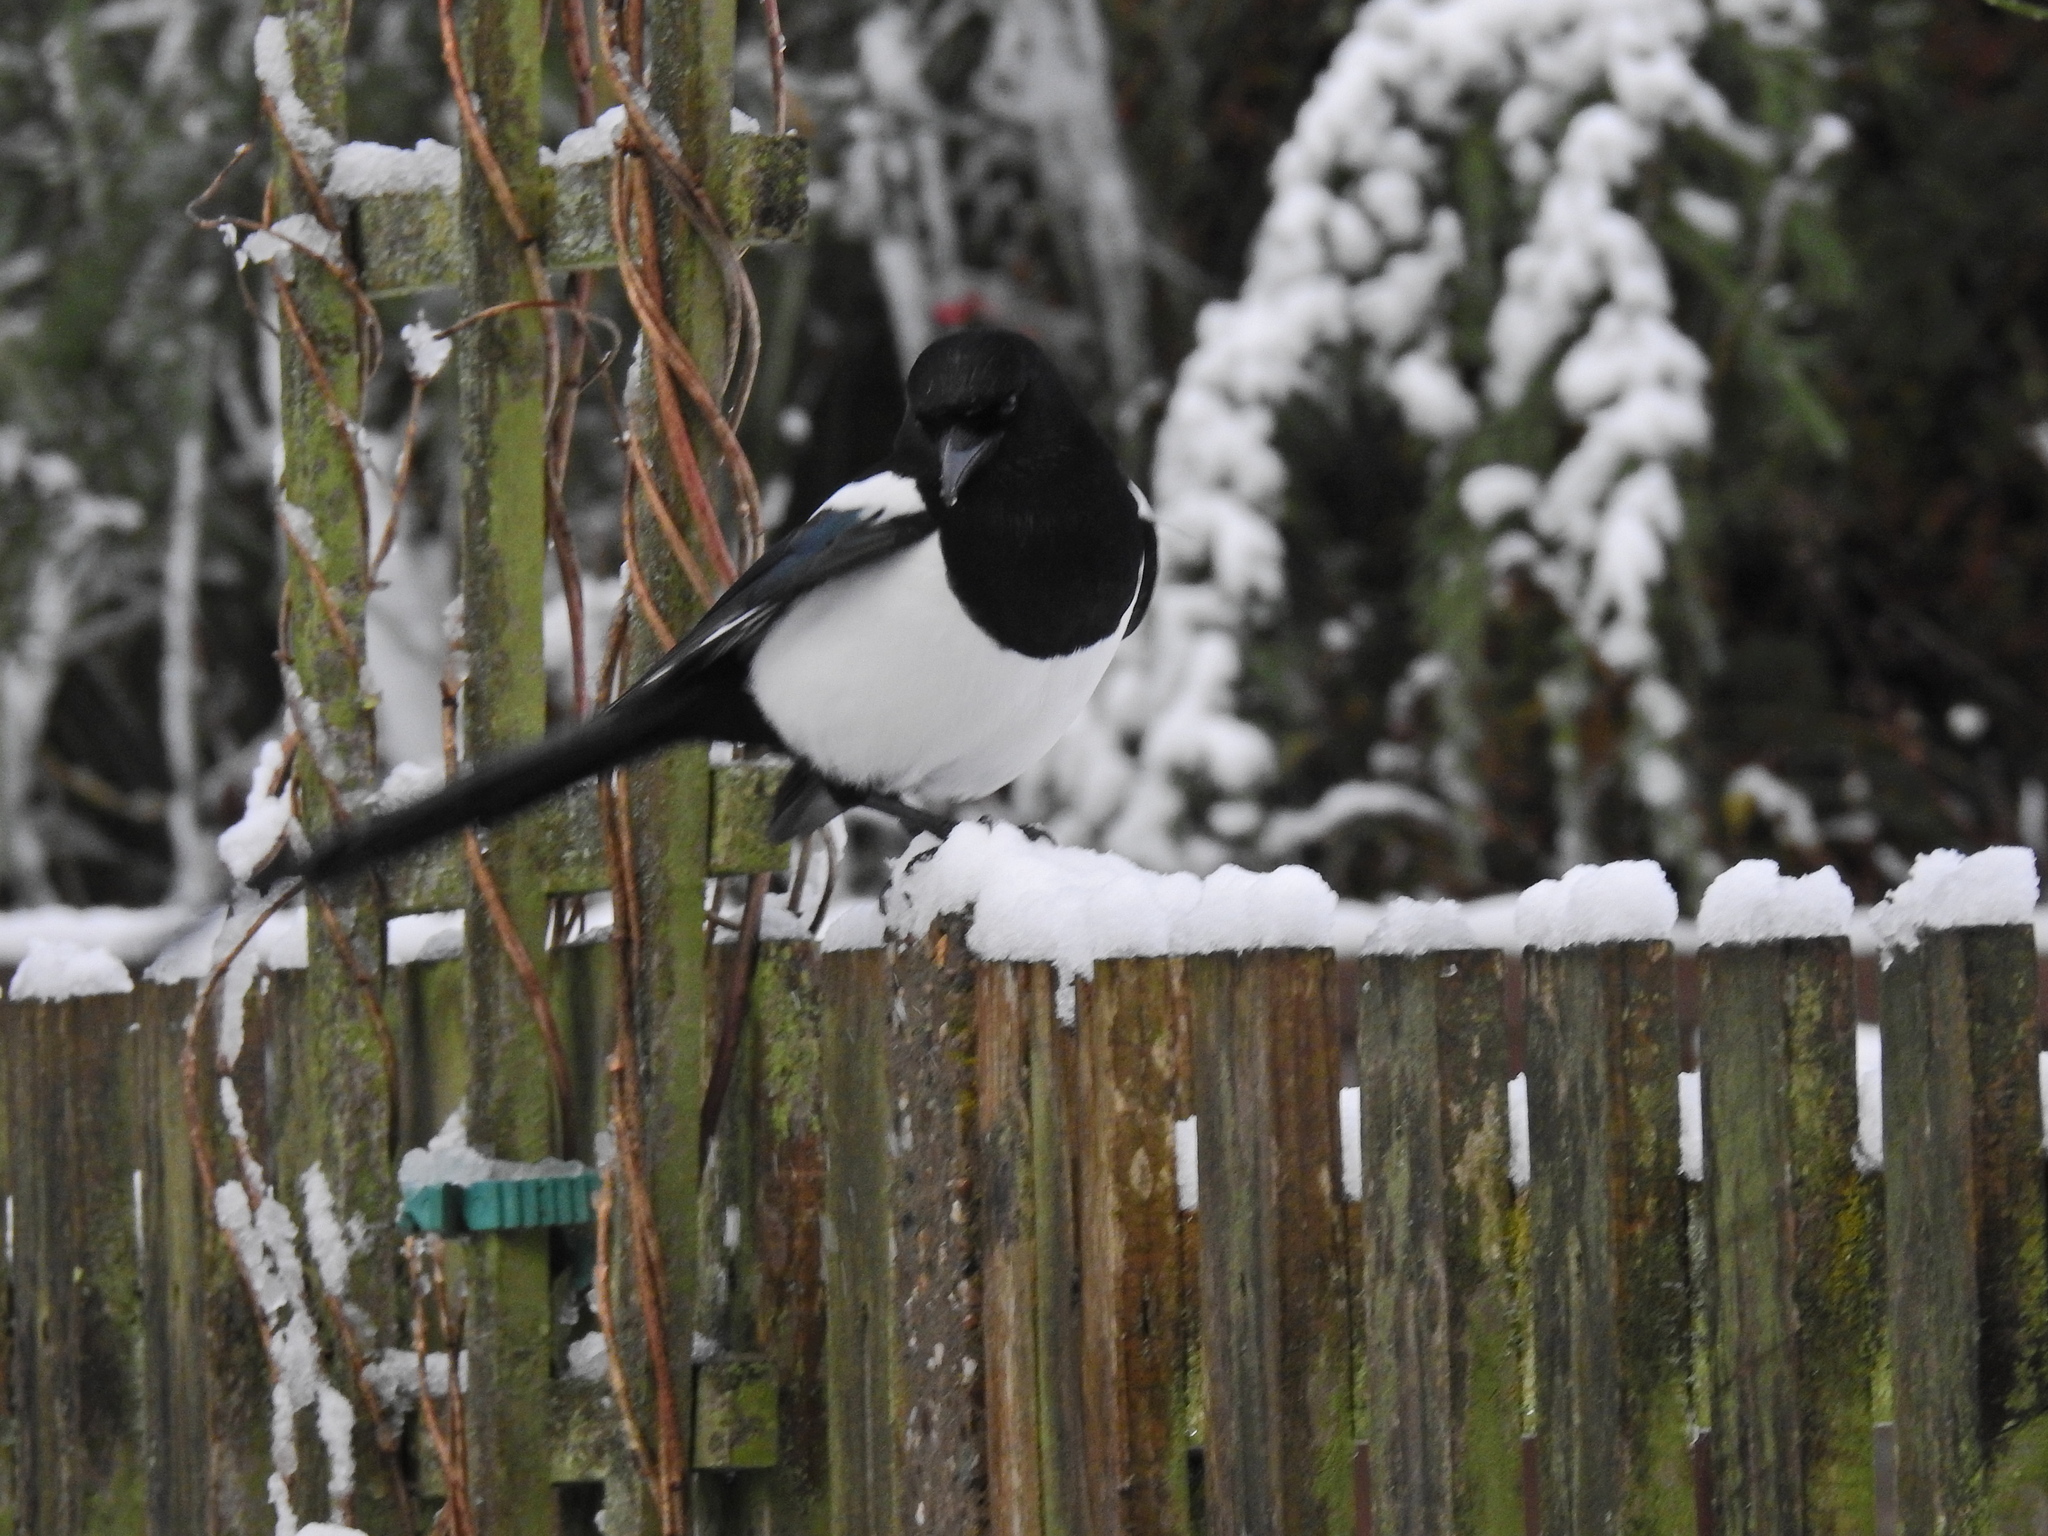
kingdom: Animalia
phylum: Chordata
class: Aves
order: Passeriformes
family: Corvidae
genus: Pica
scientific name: Pica pica
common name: Eurasian magpie
